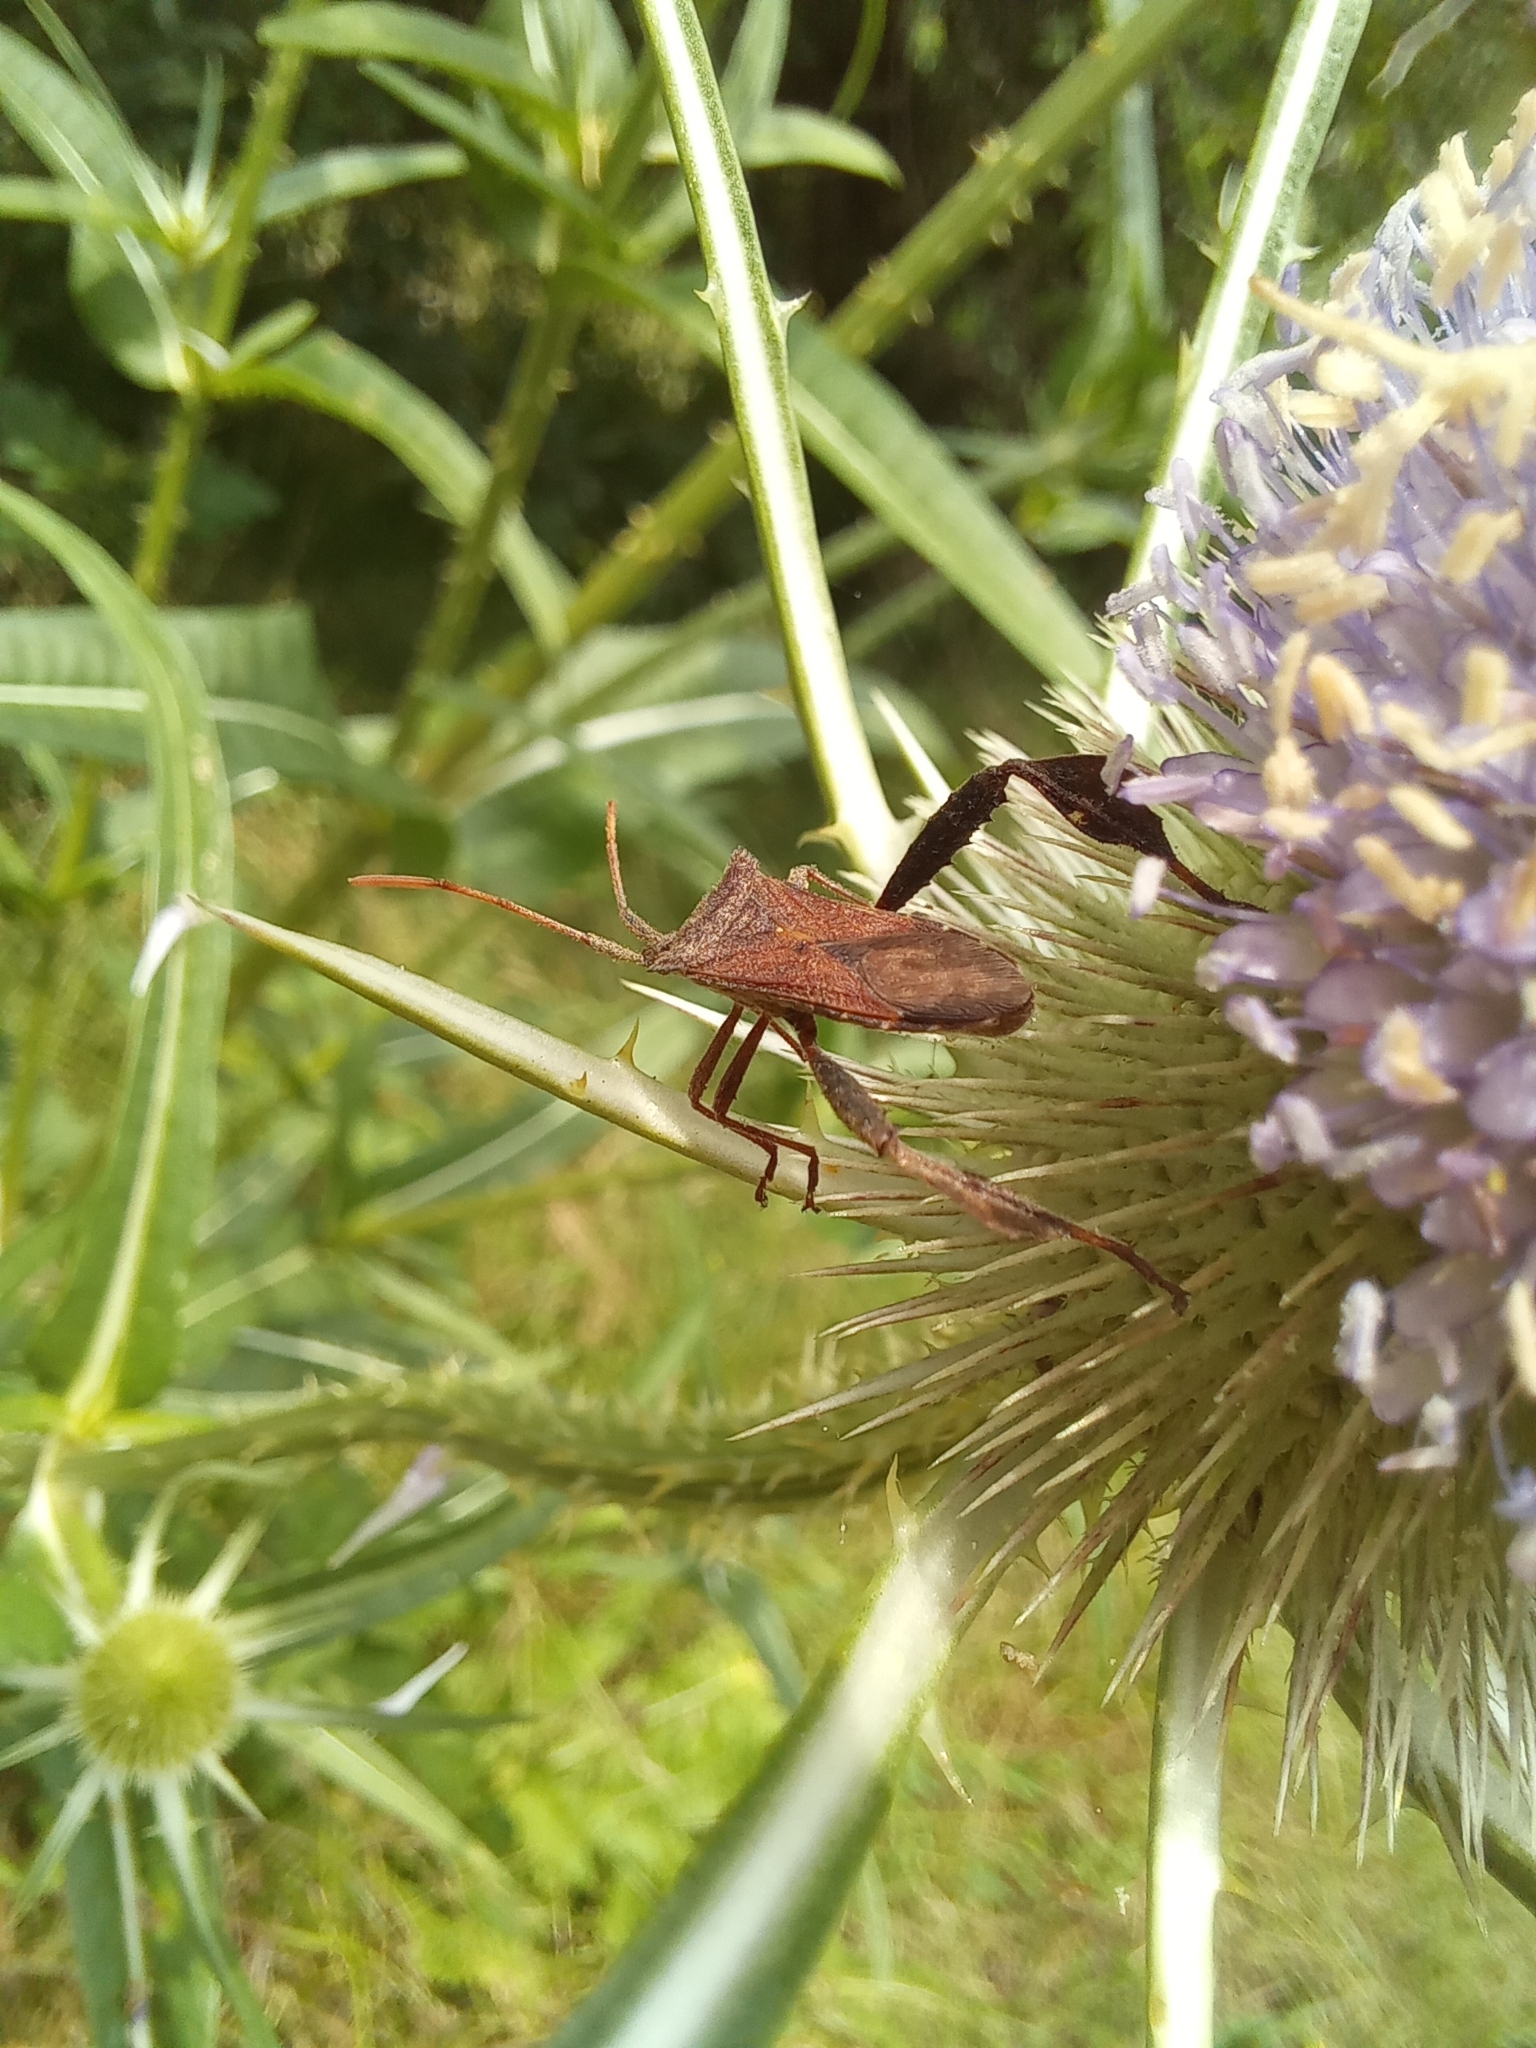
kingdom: Animalia
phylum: Arthropoda
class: Insecta
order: Hemiptera
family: Coreidae
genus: Leptoglossus
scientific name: Leptoglossus concaviusculus
